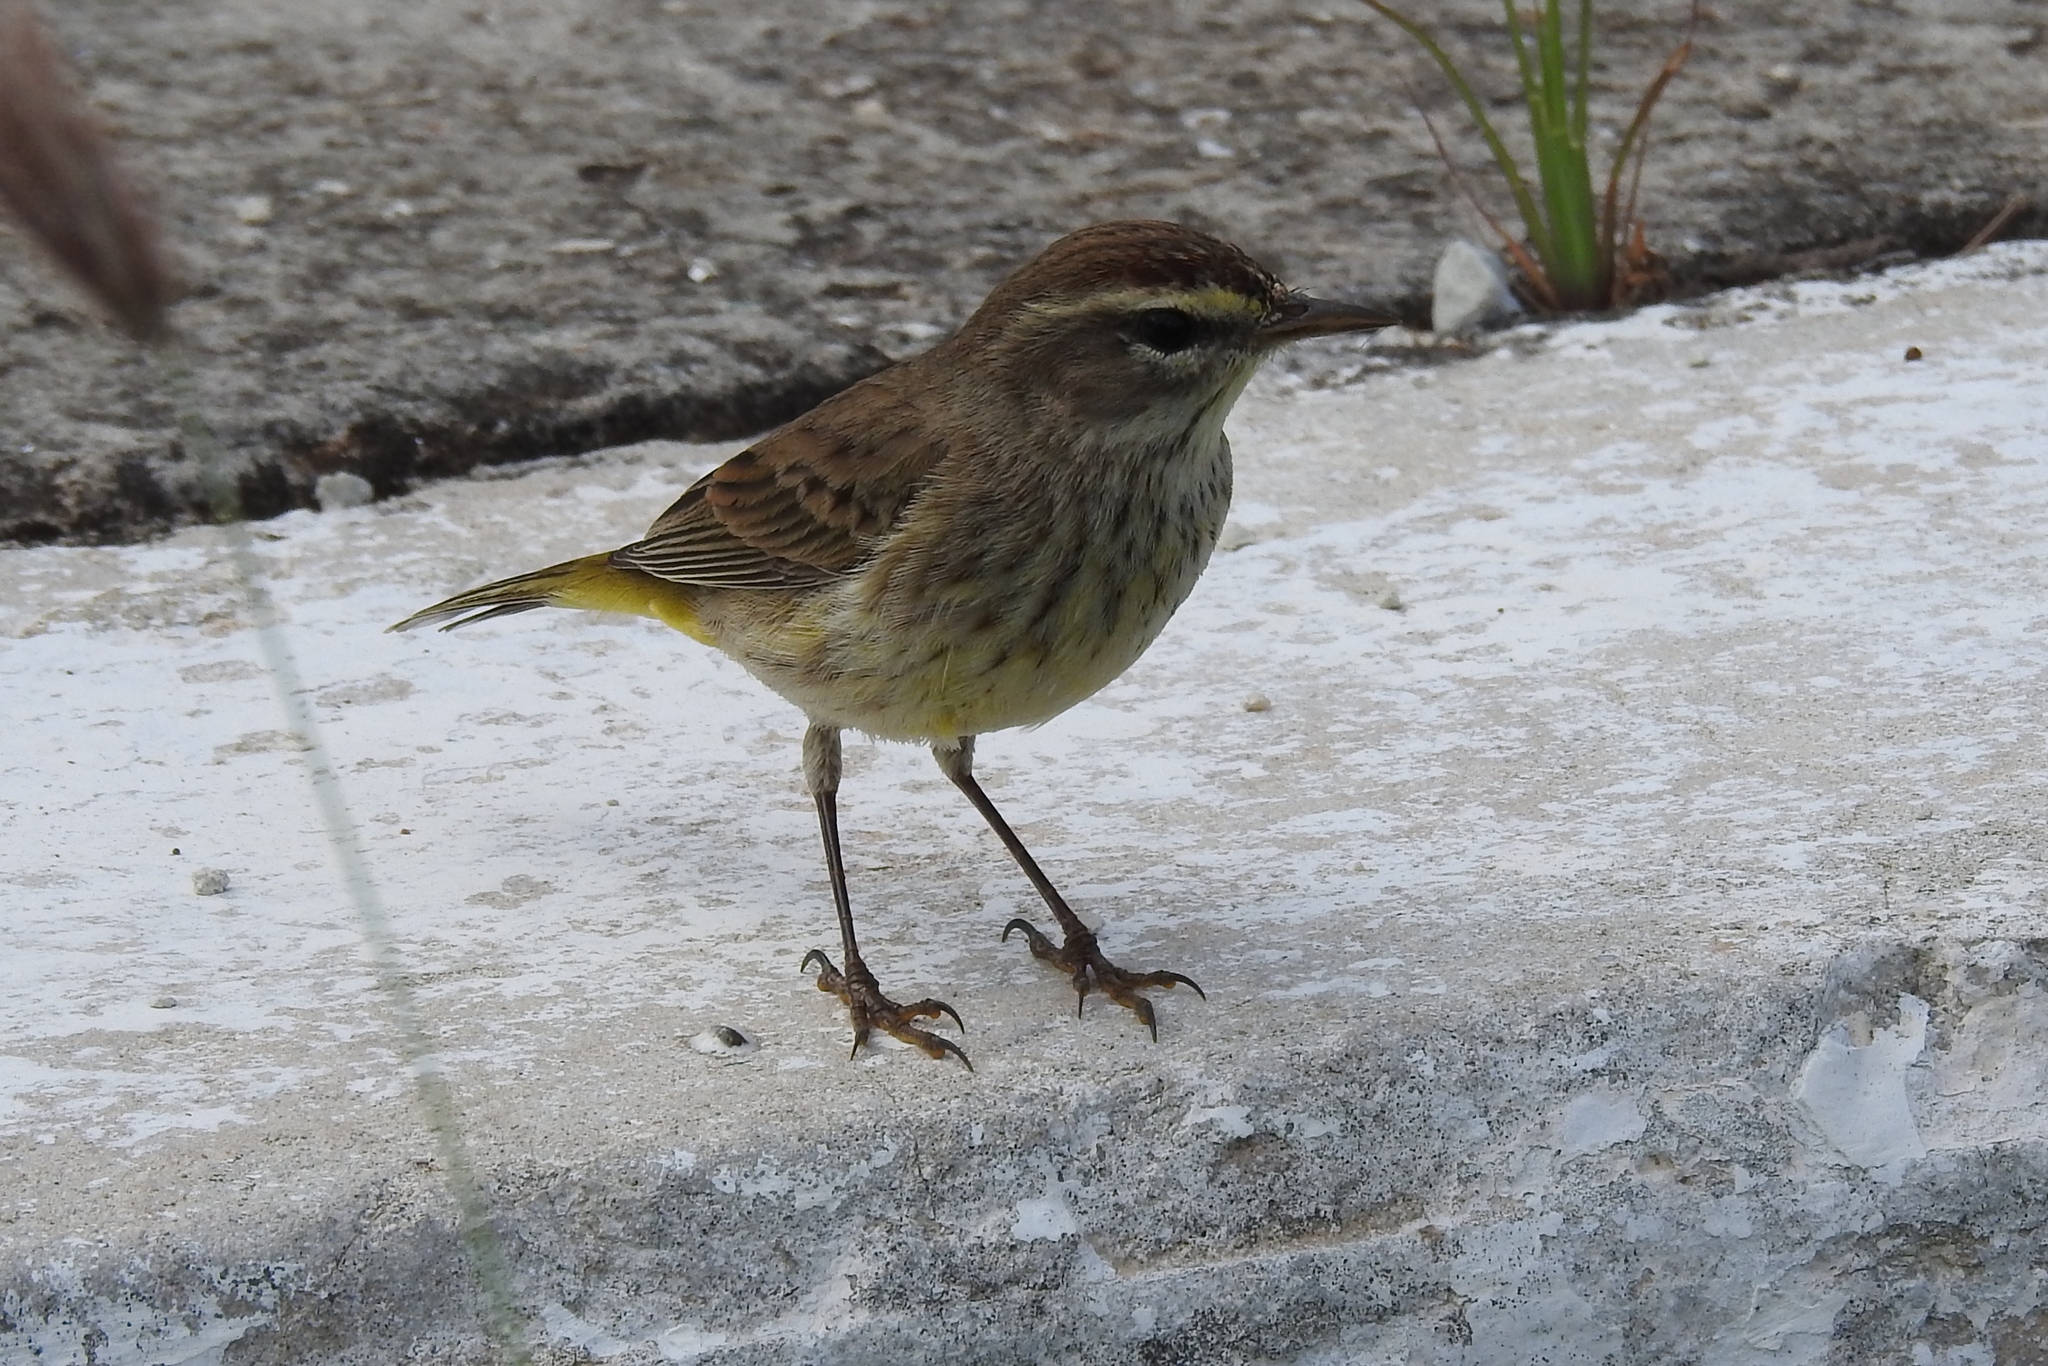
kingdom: Animalia
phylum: Chordata
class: Aves
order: Passeriformes
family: Parulidae
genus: Setophaga
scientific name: Setophaga palmarum
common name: Palm warbler
